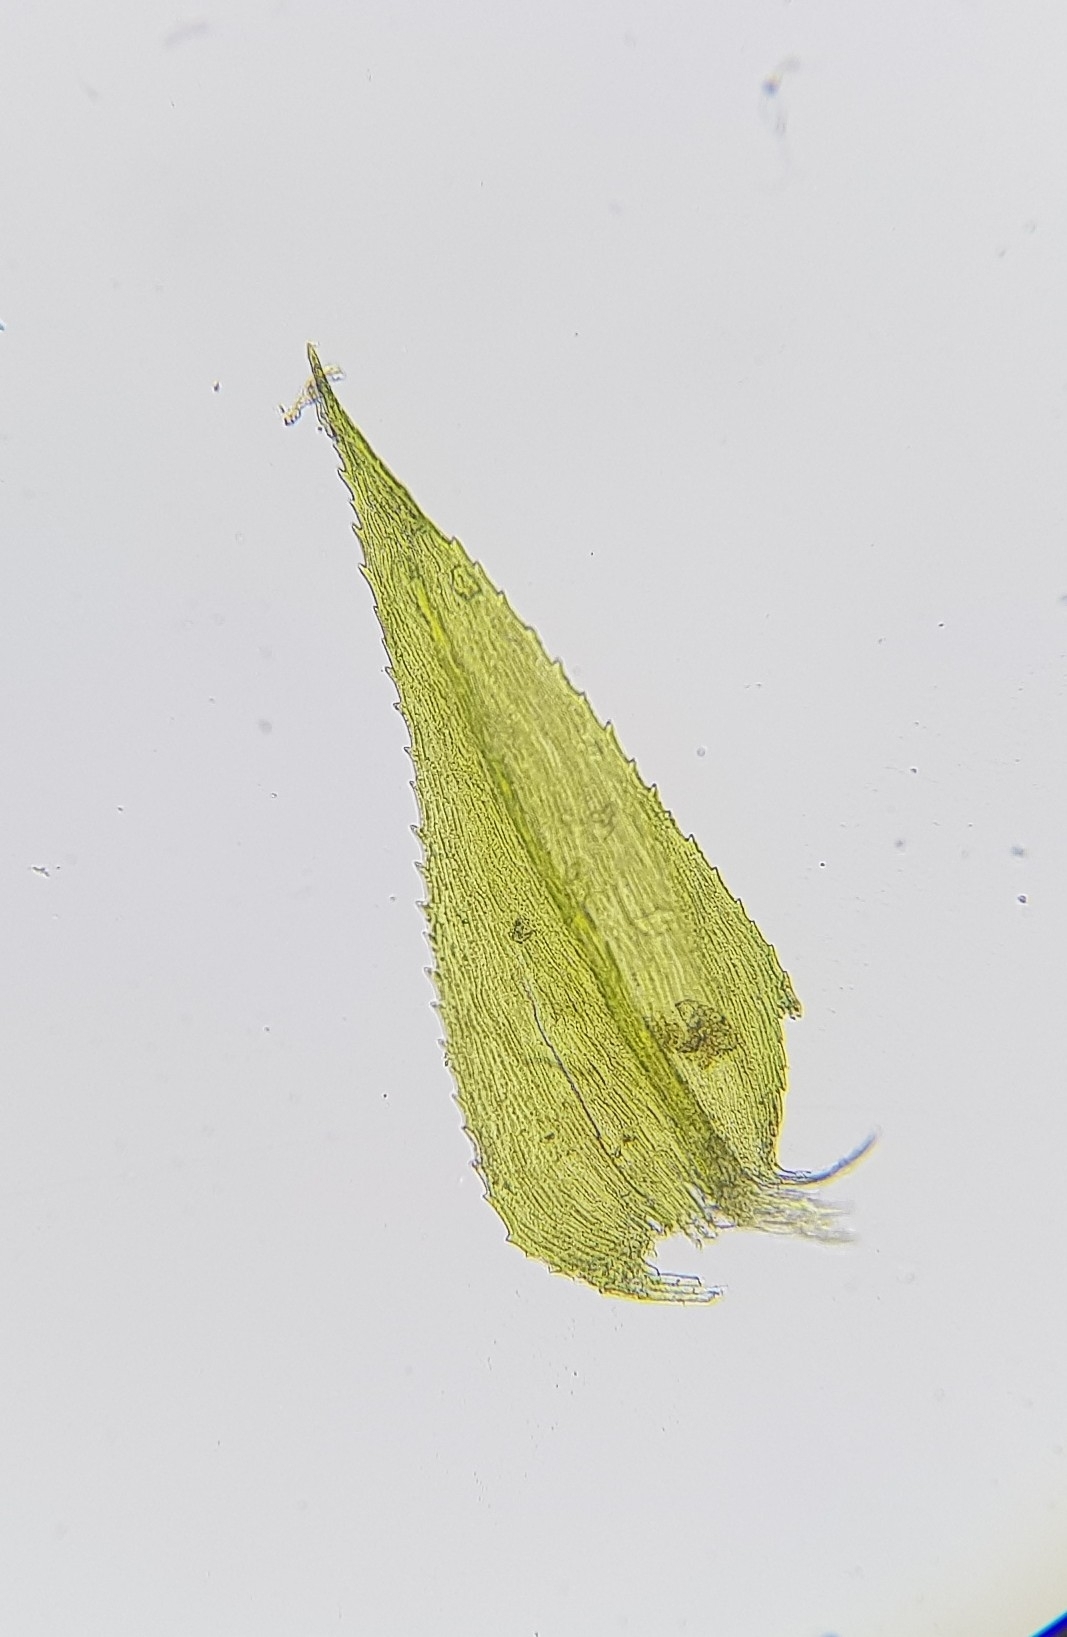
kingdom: Plantae
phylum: Bryophyta
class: Bryopsida
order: Hypnales
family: Brachytheciaceae
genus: Kindbergia
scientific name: Kindbergia praelonga
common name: Slender beaked moss
